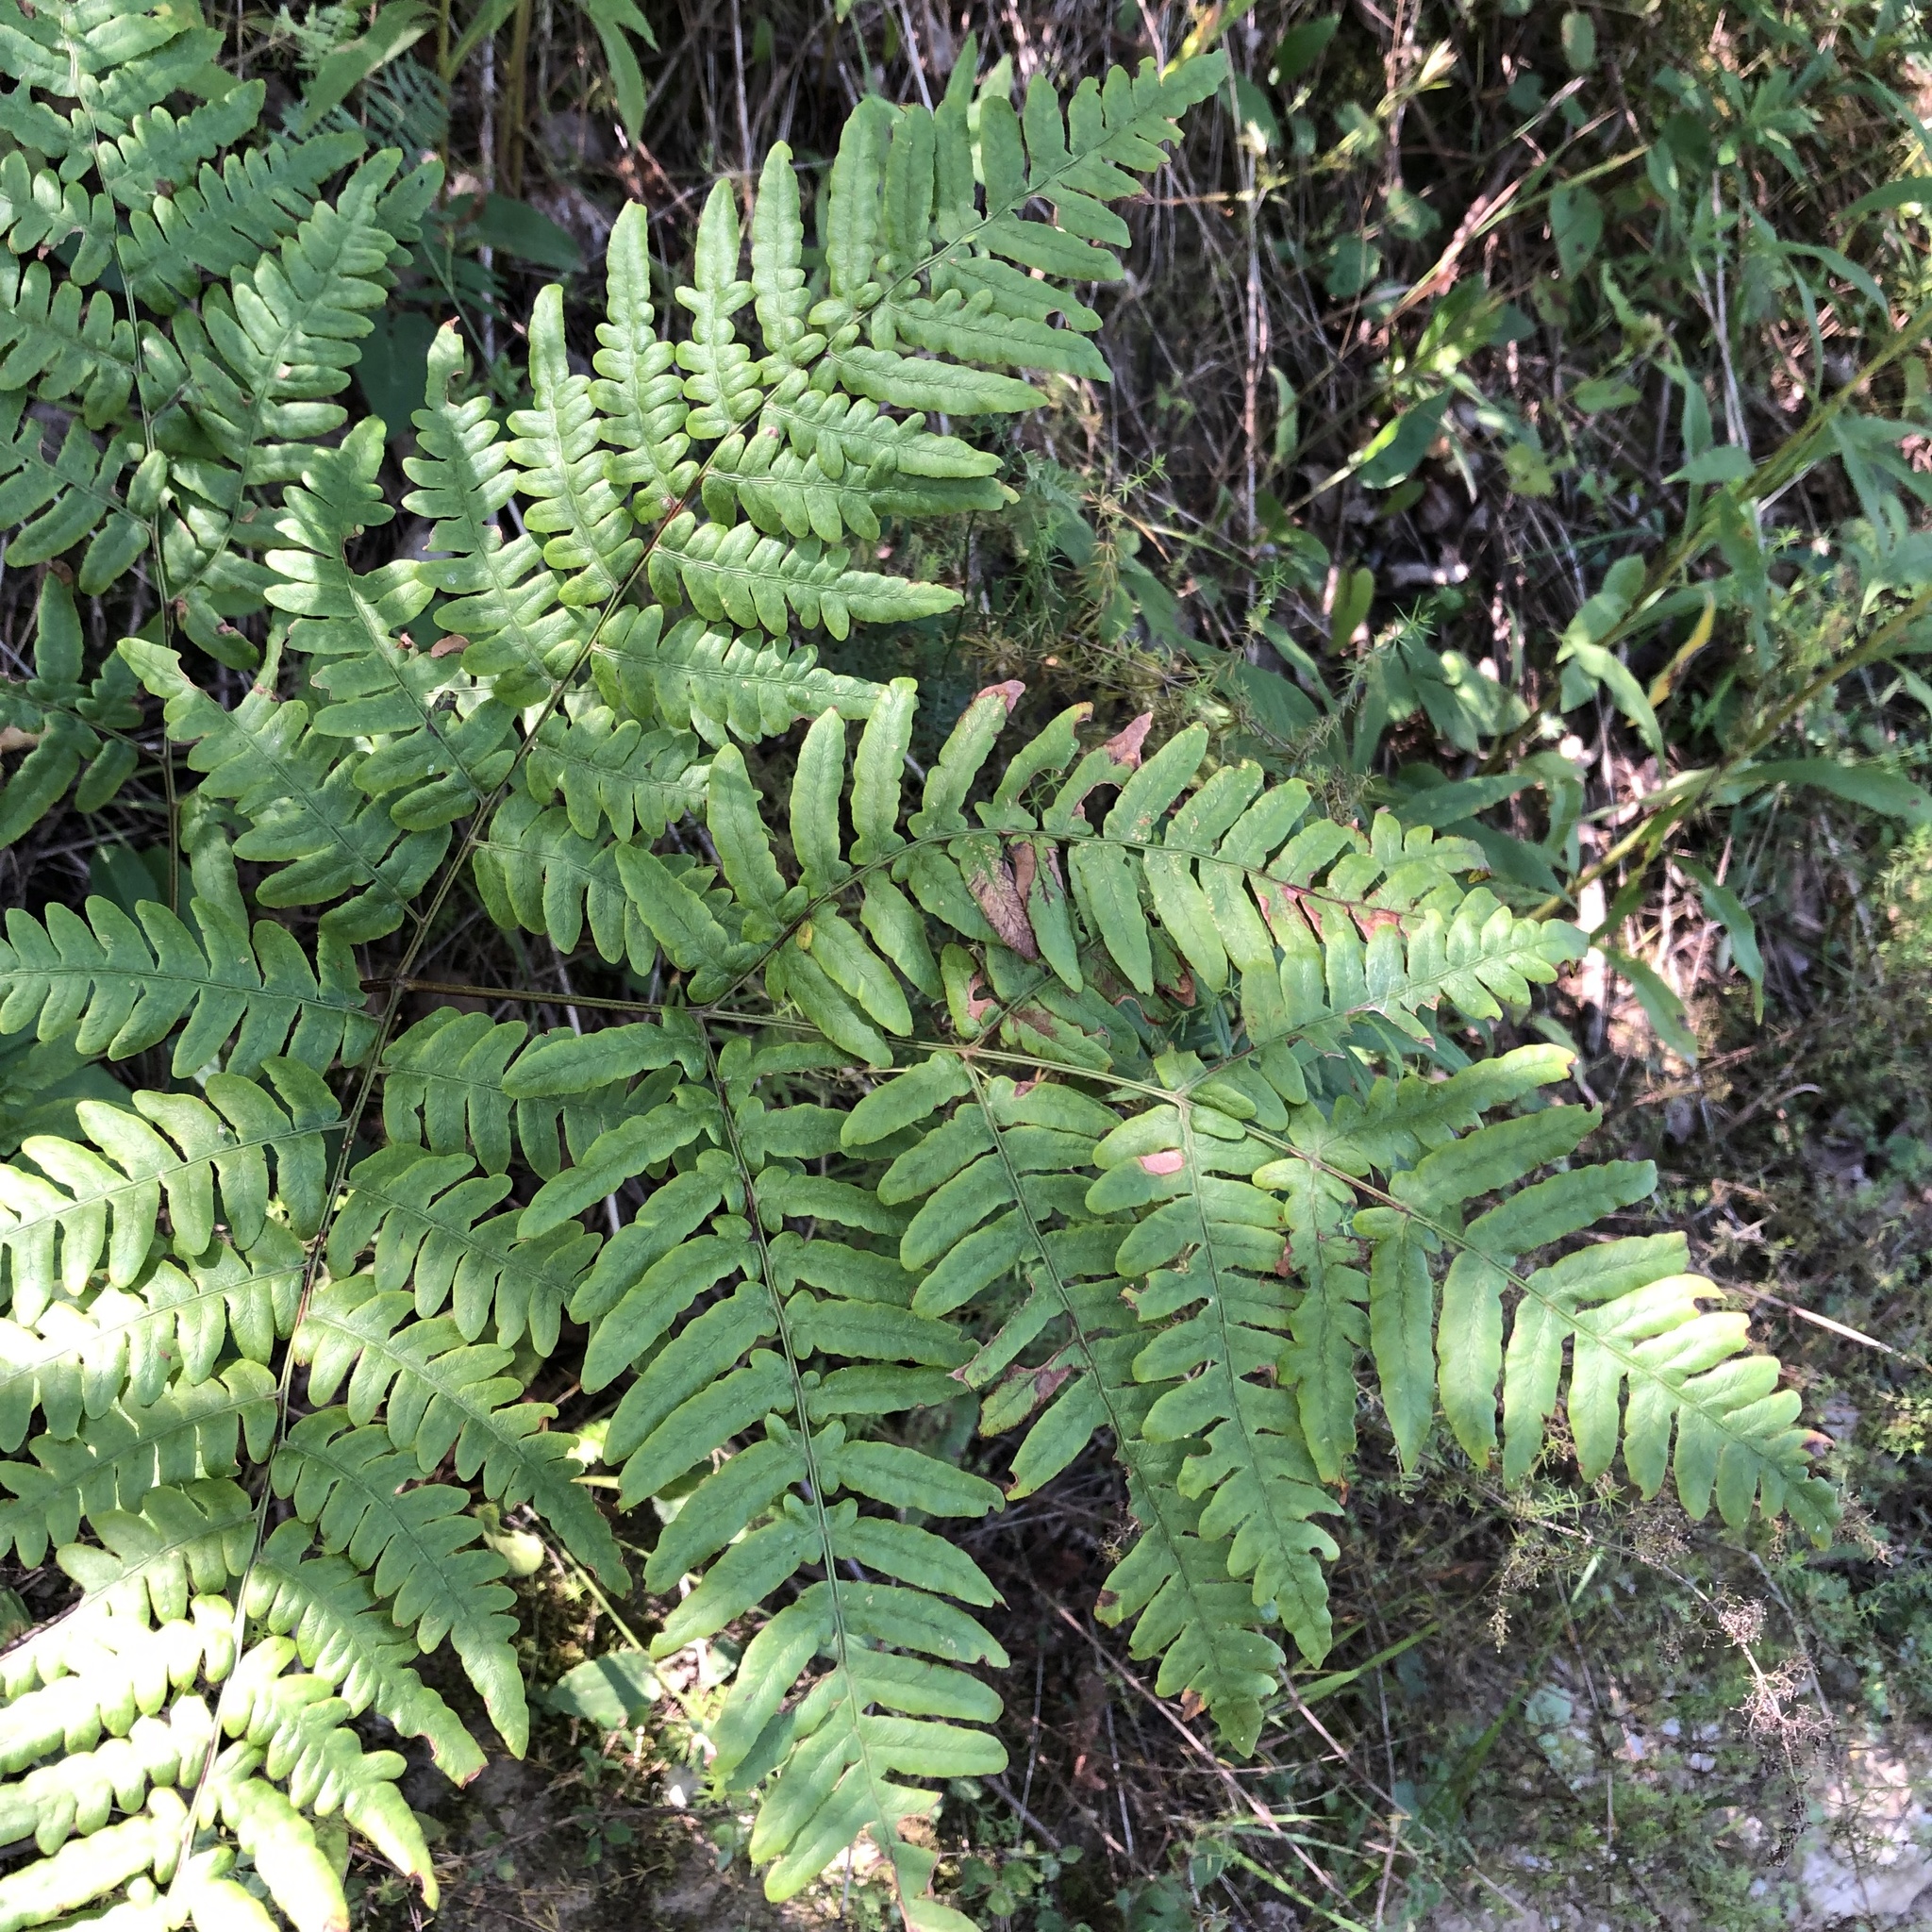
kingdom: Plantae
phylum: Tracheophyta
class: Polypodiopsida
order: Polypodiales
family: Dennstaedtiaceae
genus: Pteridium
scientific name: Pteridium aquilinum
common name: Bracken
